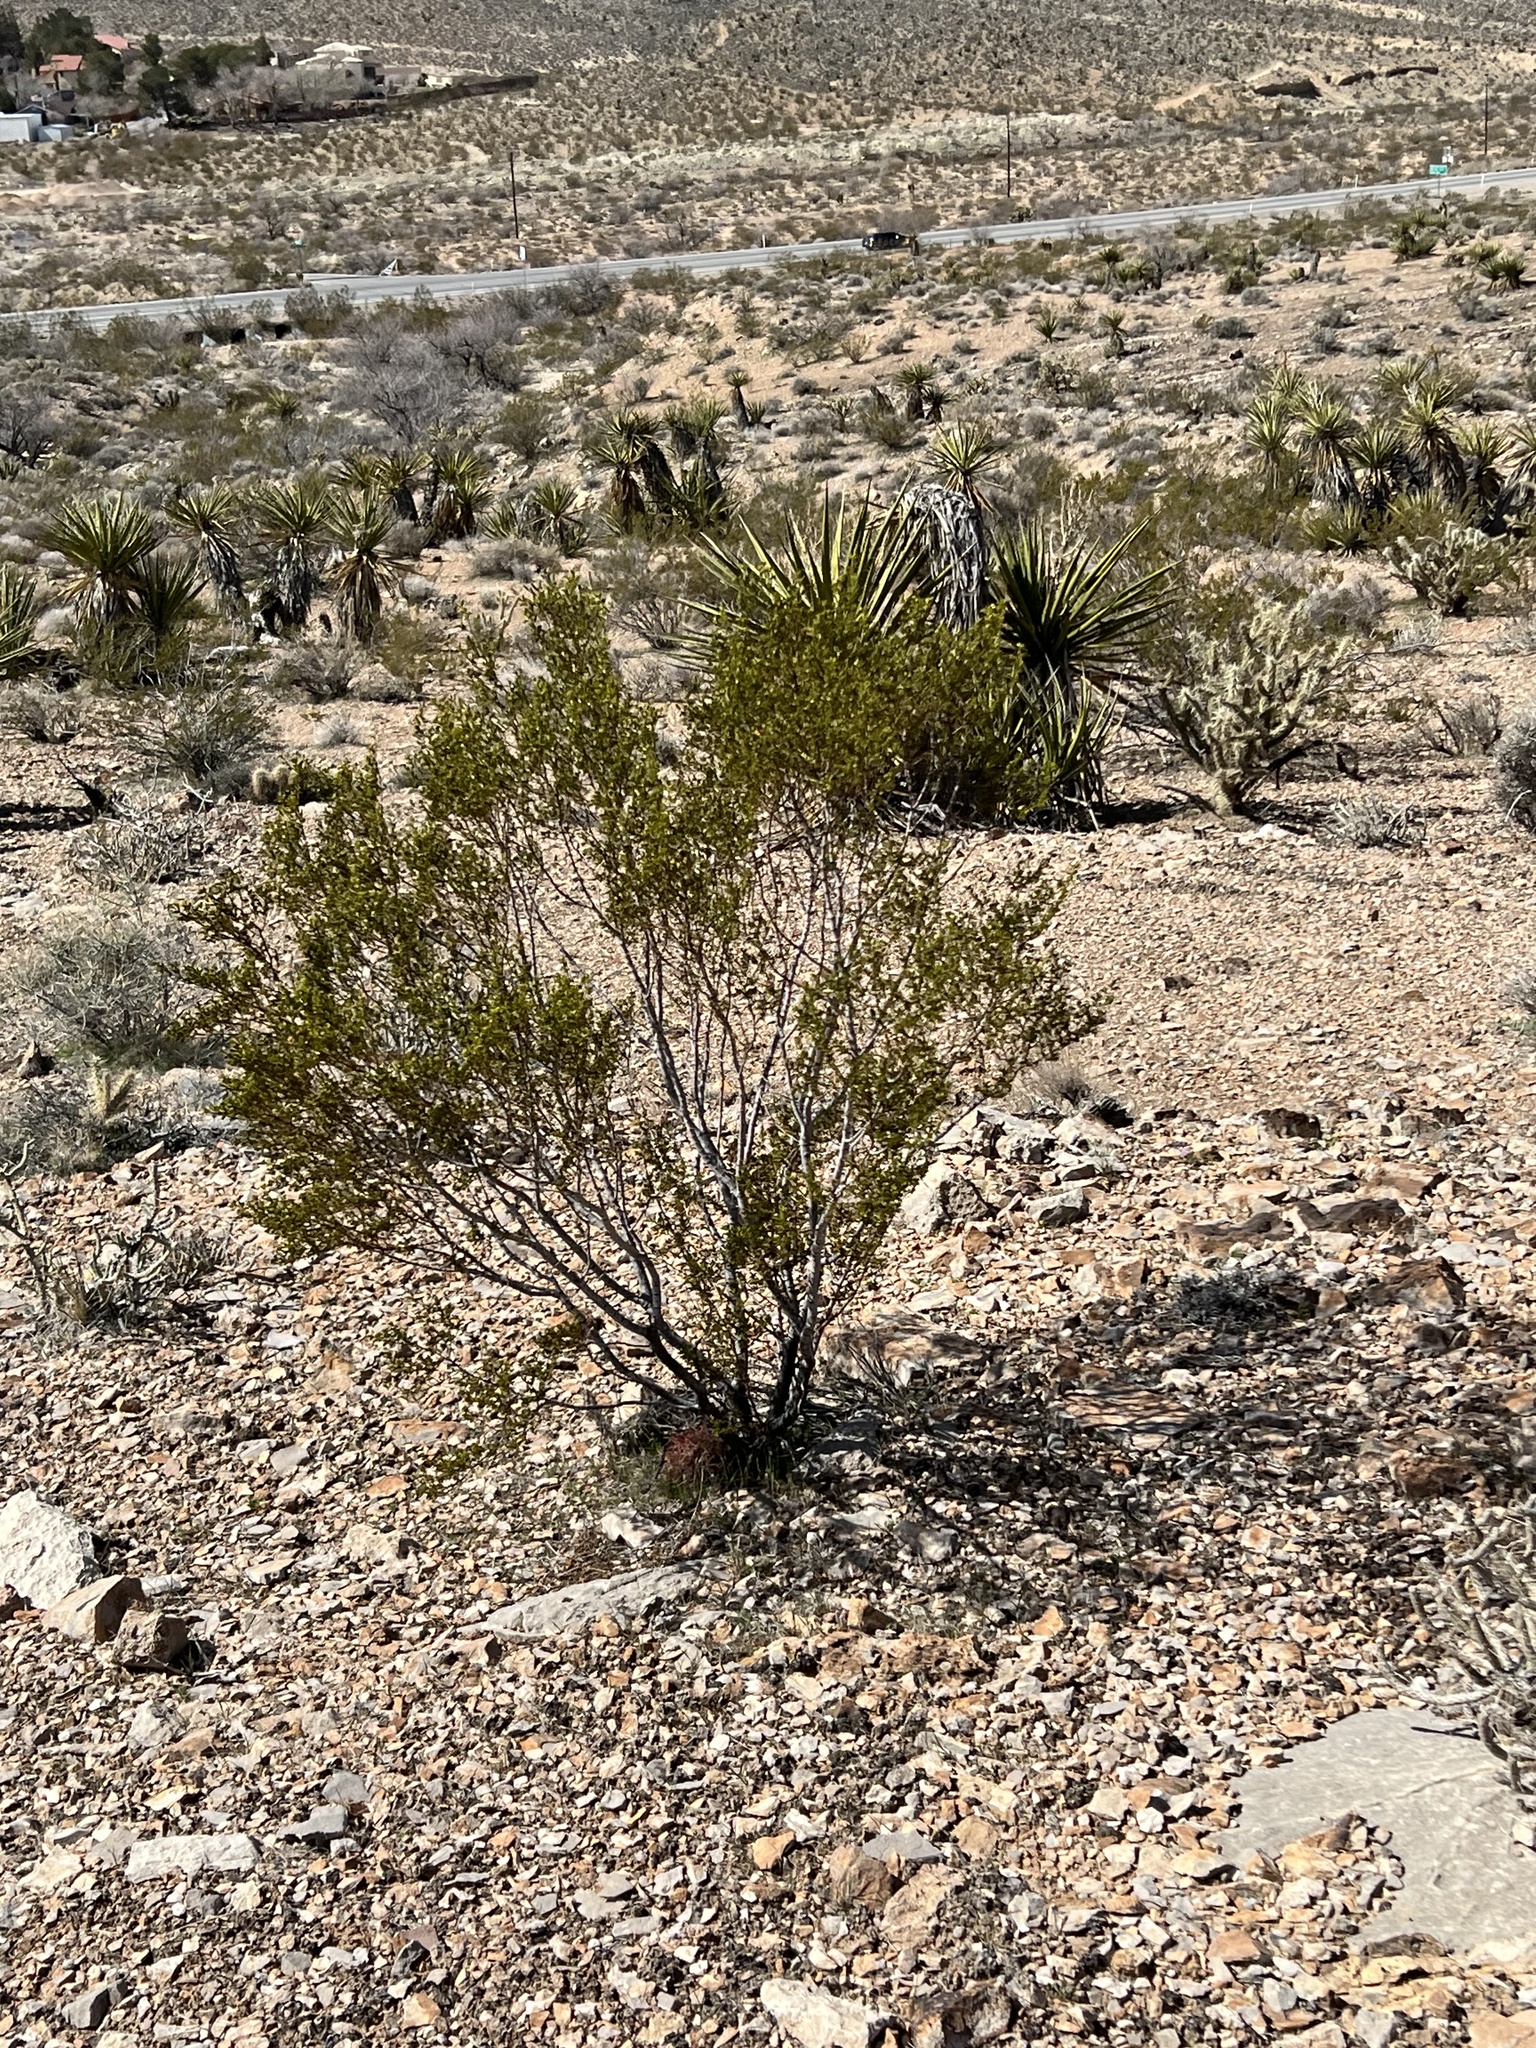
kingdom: Plantae
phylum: Tracheophyta
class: Magnoliopsida
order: Zygophyllales
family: Zygophyllaceae
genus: Larrea
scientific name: Larrea tridentata
